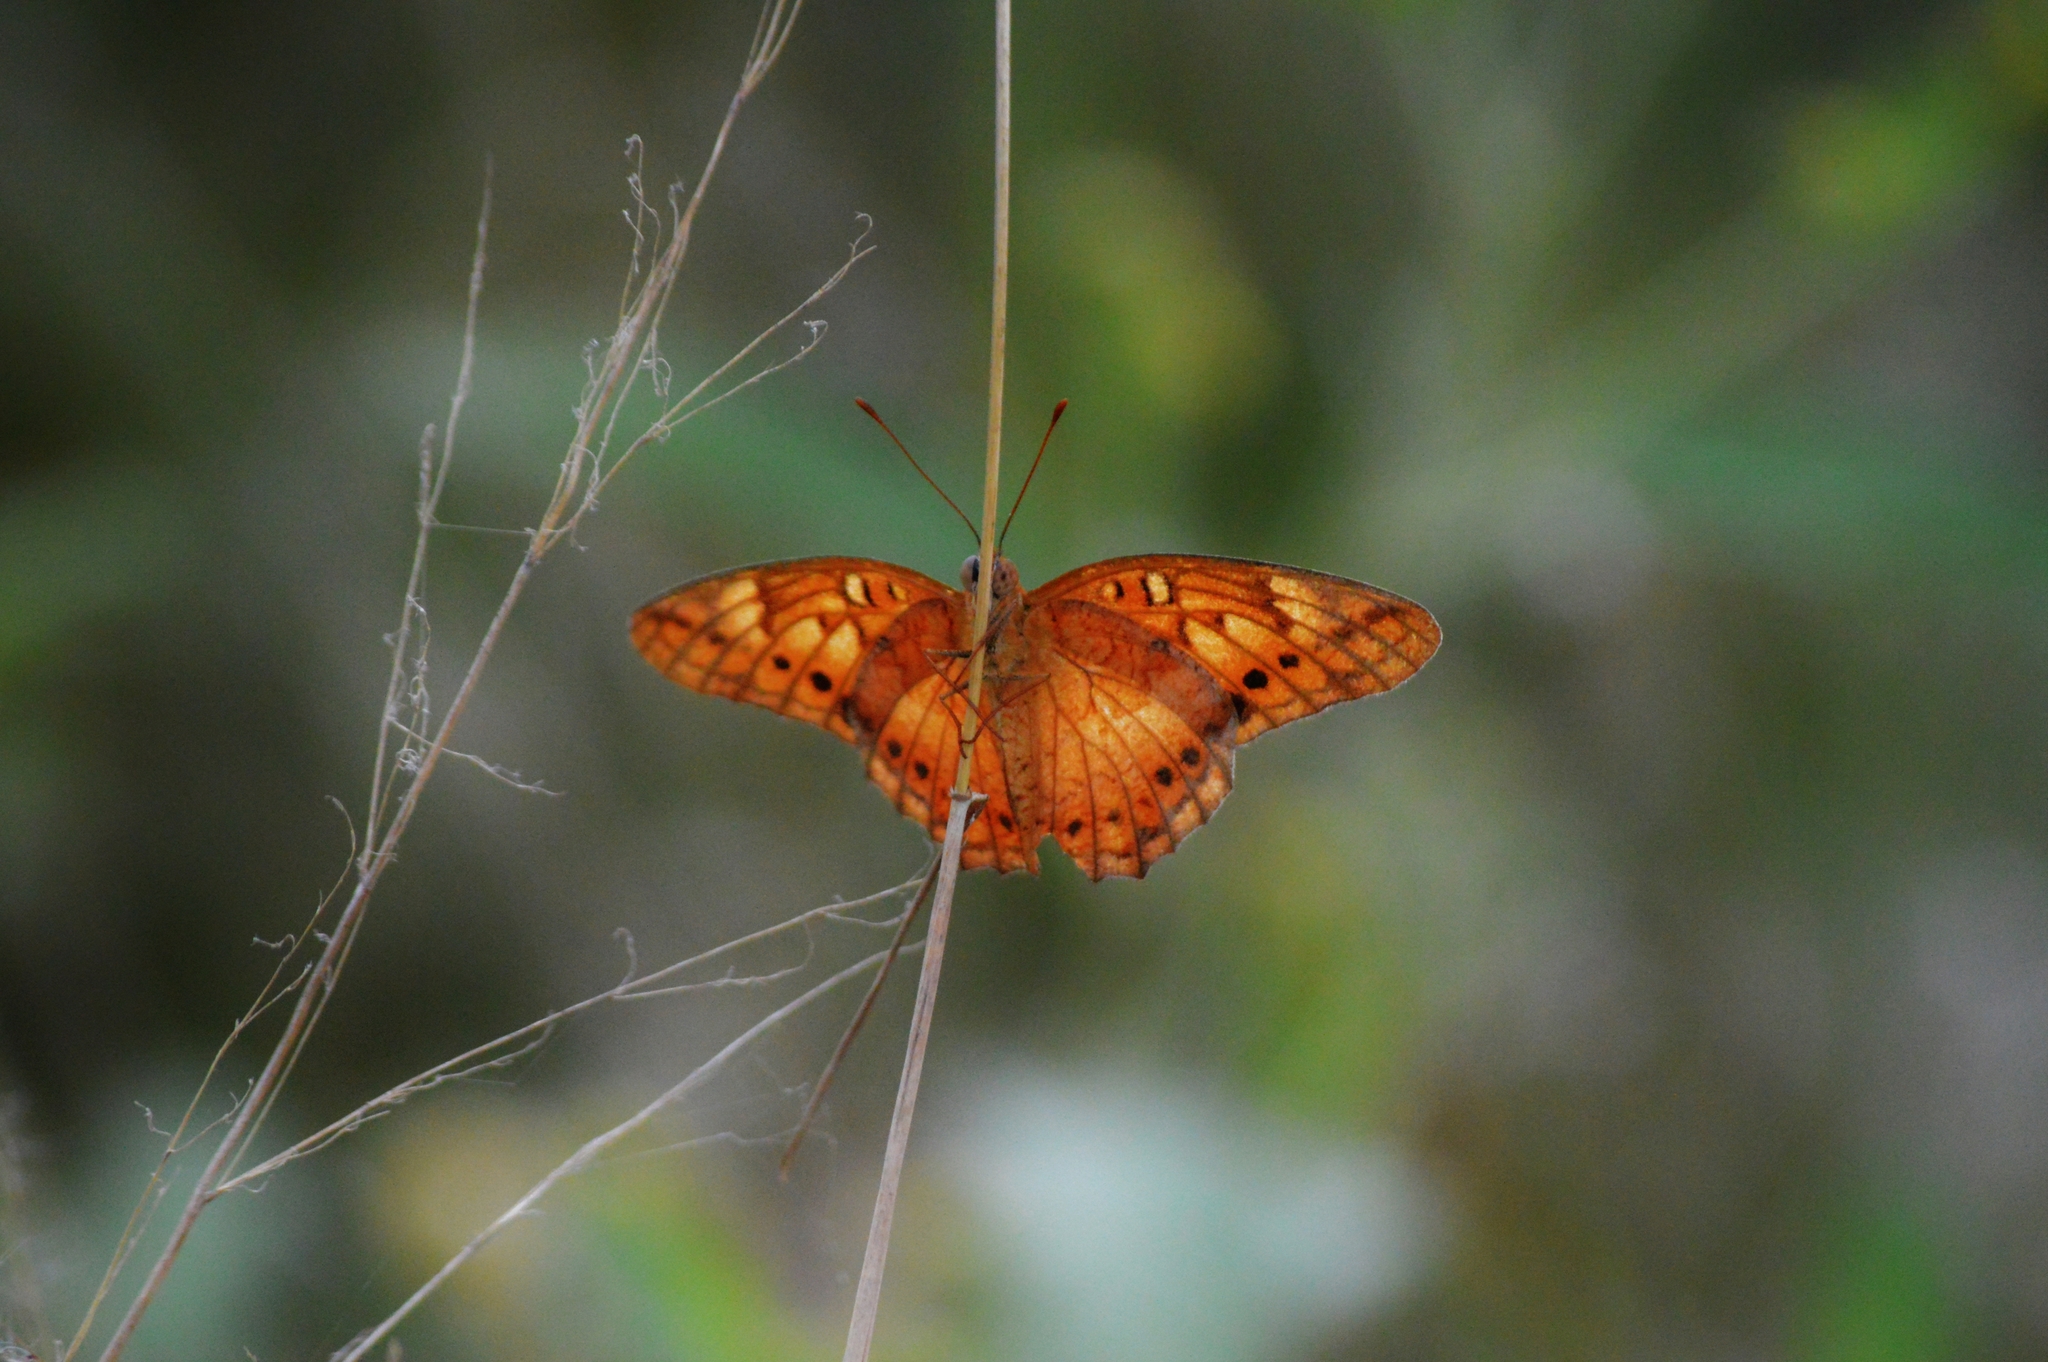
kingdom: Animalia
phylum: Arthropoda
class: Insecta
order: Lepidoptera
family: Nymphalidae
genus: Euptoieta
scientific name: Euptoieta hegesia
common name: Mexican fritillary
